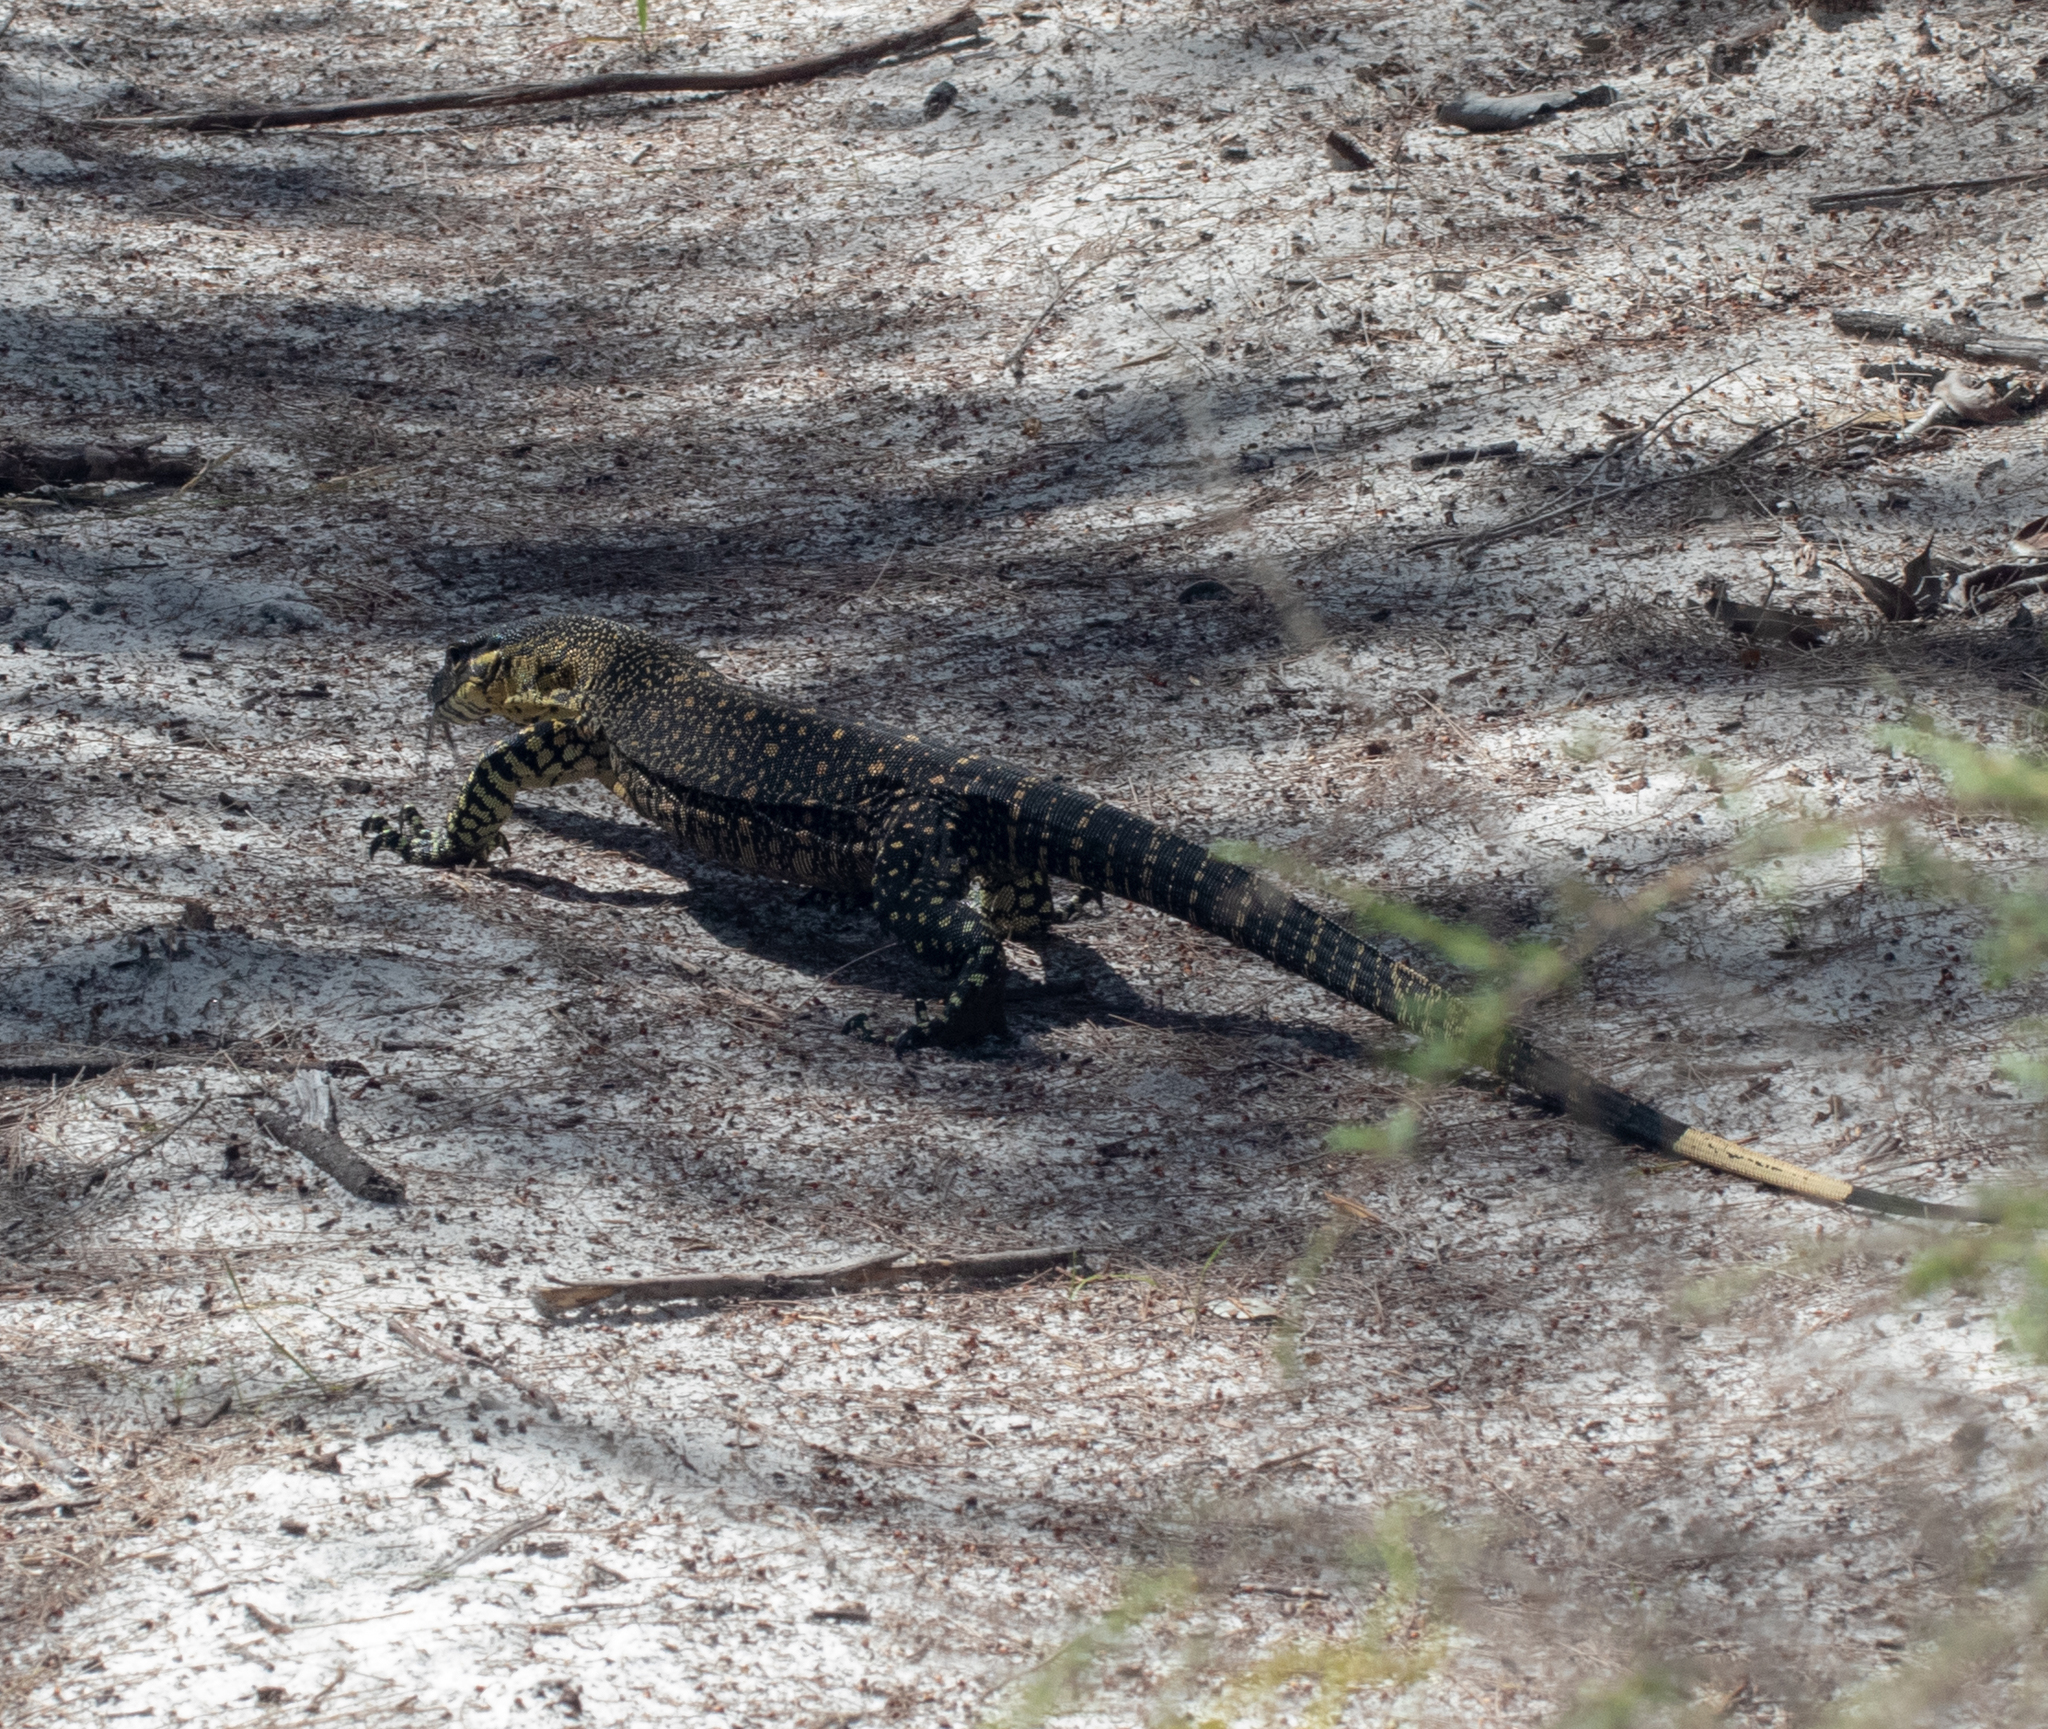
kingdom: Animalia
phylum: Chordata
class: Squamata
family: Varanidae
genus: Varanus
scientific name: Varanus varius
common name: Lace monitor
